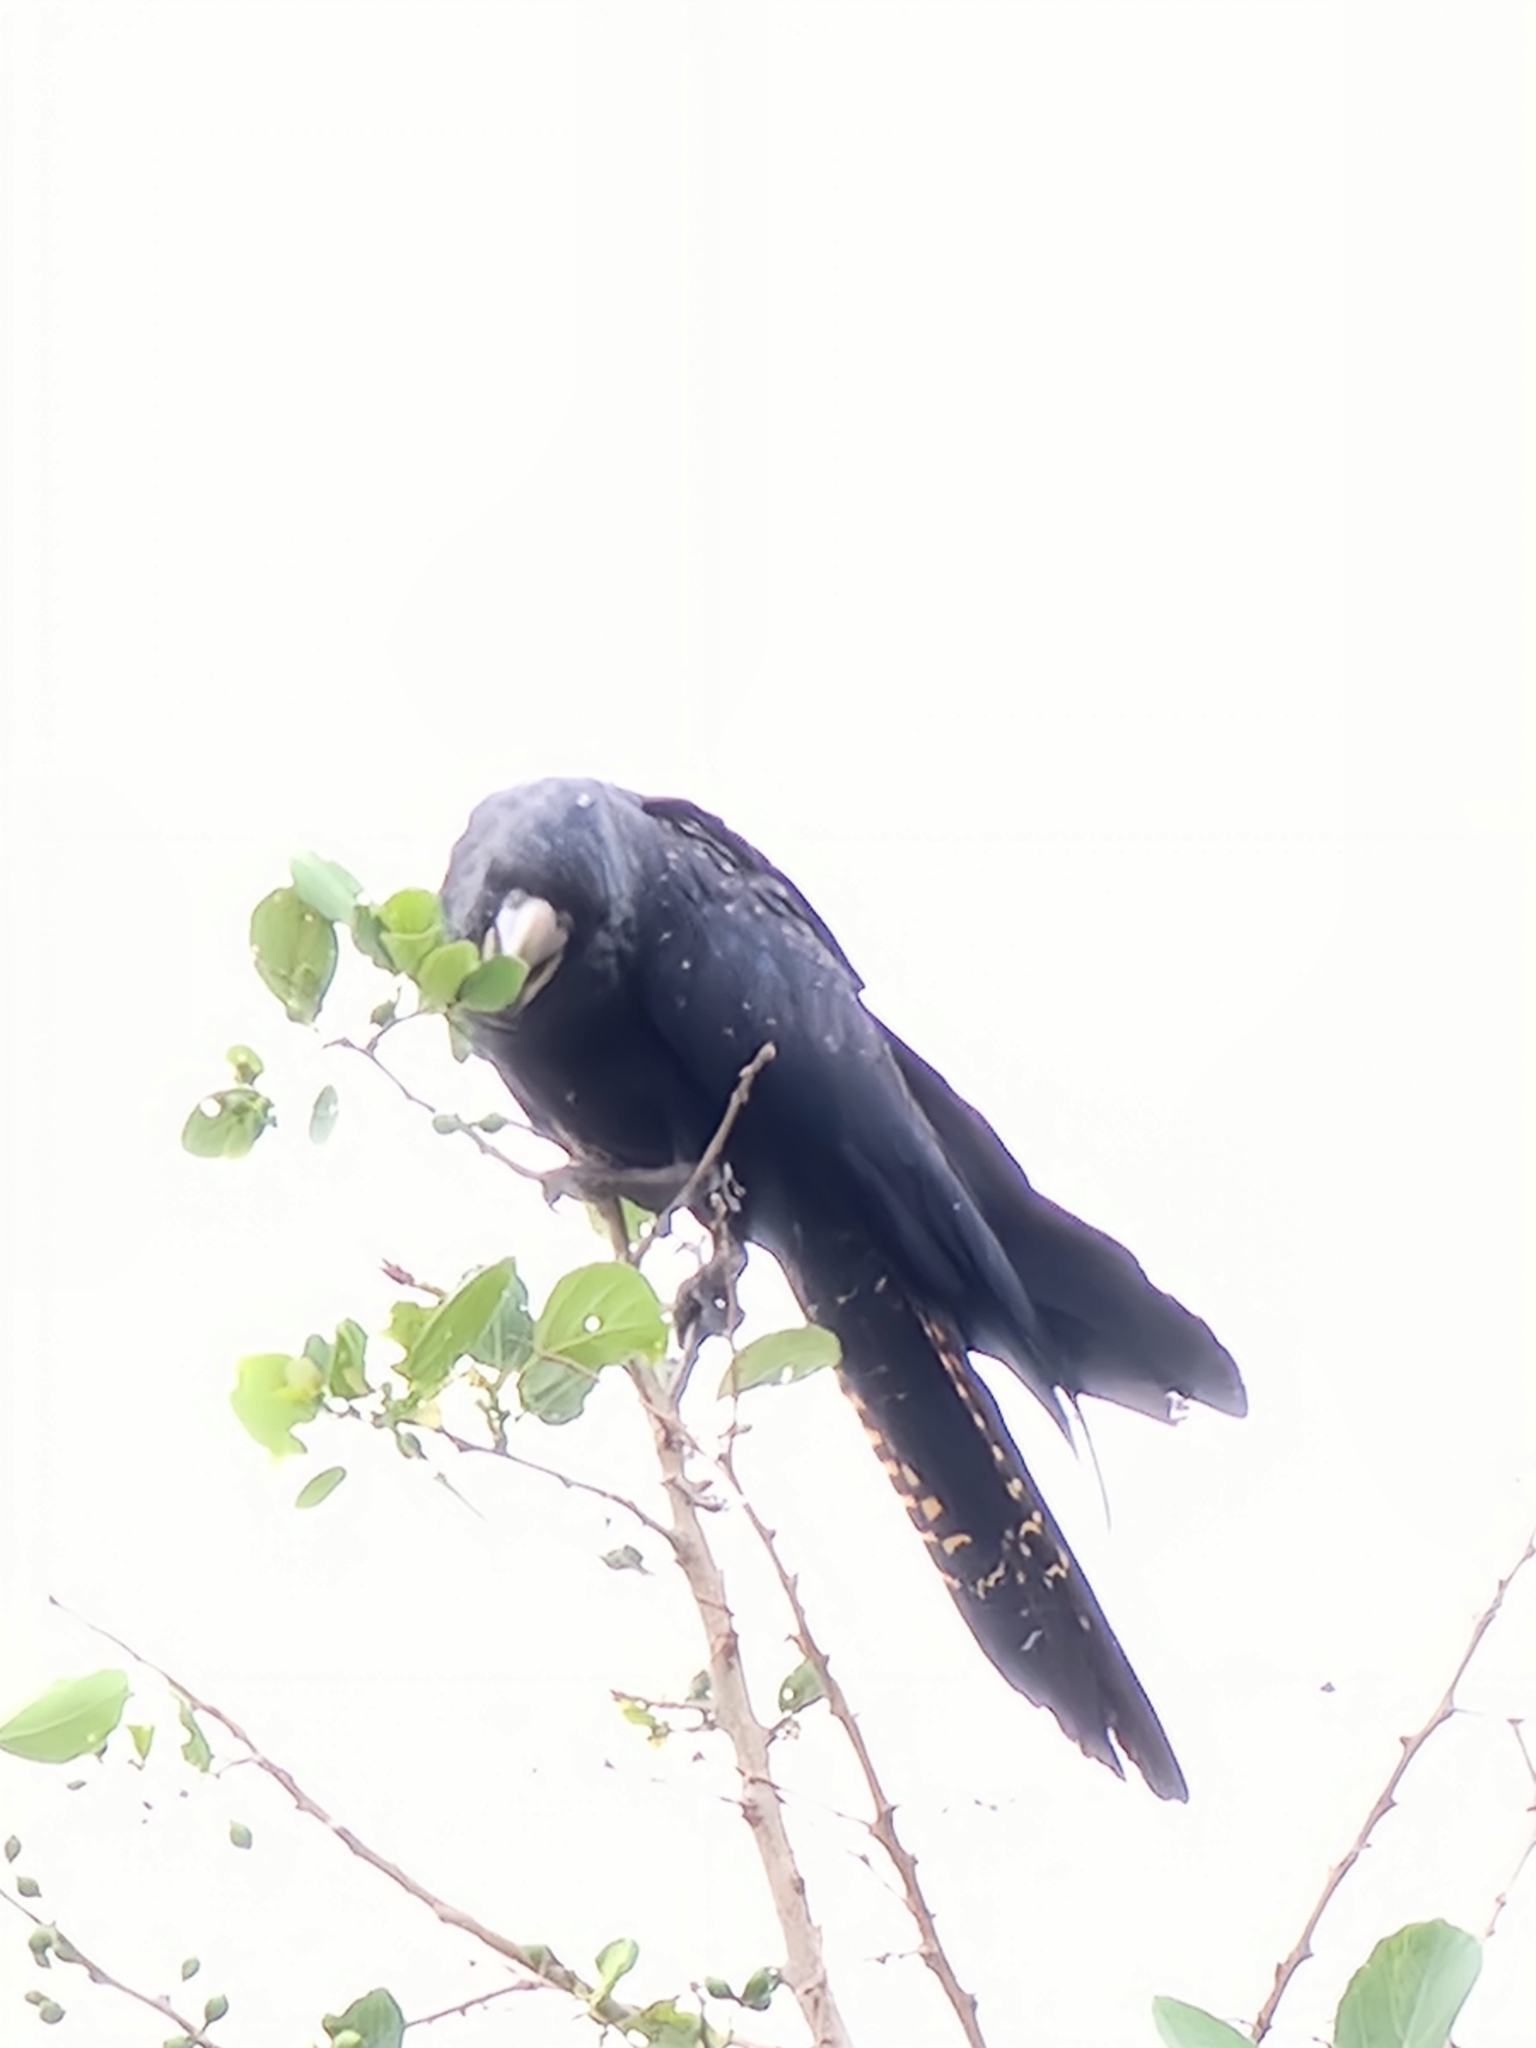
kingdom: Animalia
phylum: Chordata
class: Aves
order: Psittaciformes
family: Psittacidae
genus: Calyptorhynchus
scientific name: Calyptorhynchus banksii
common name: Red-tailed black cockatoo
